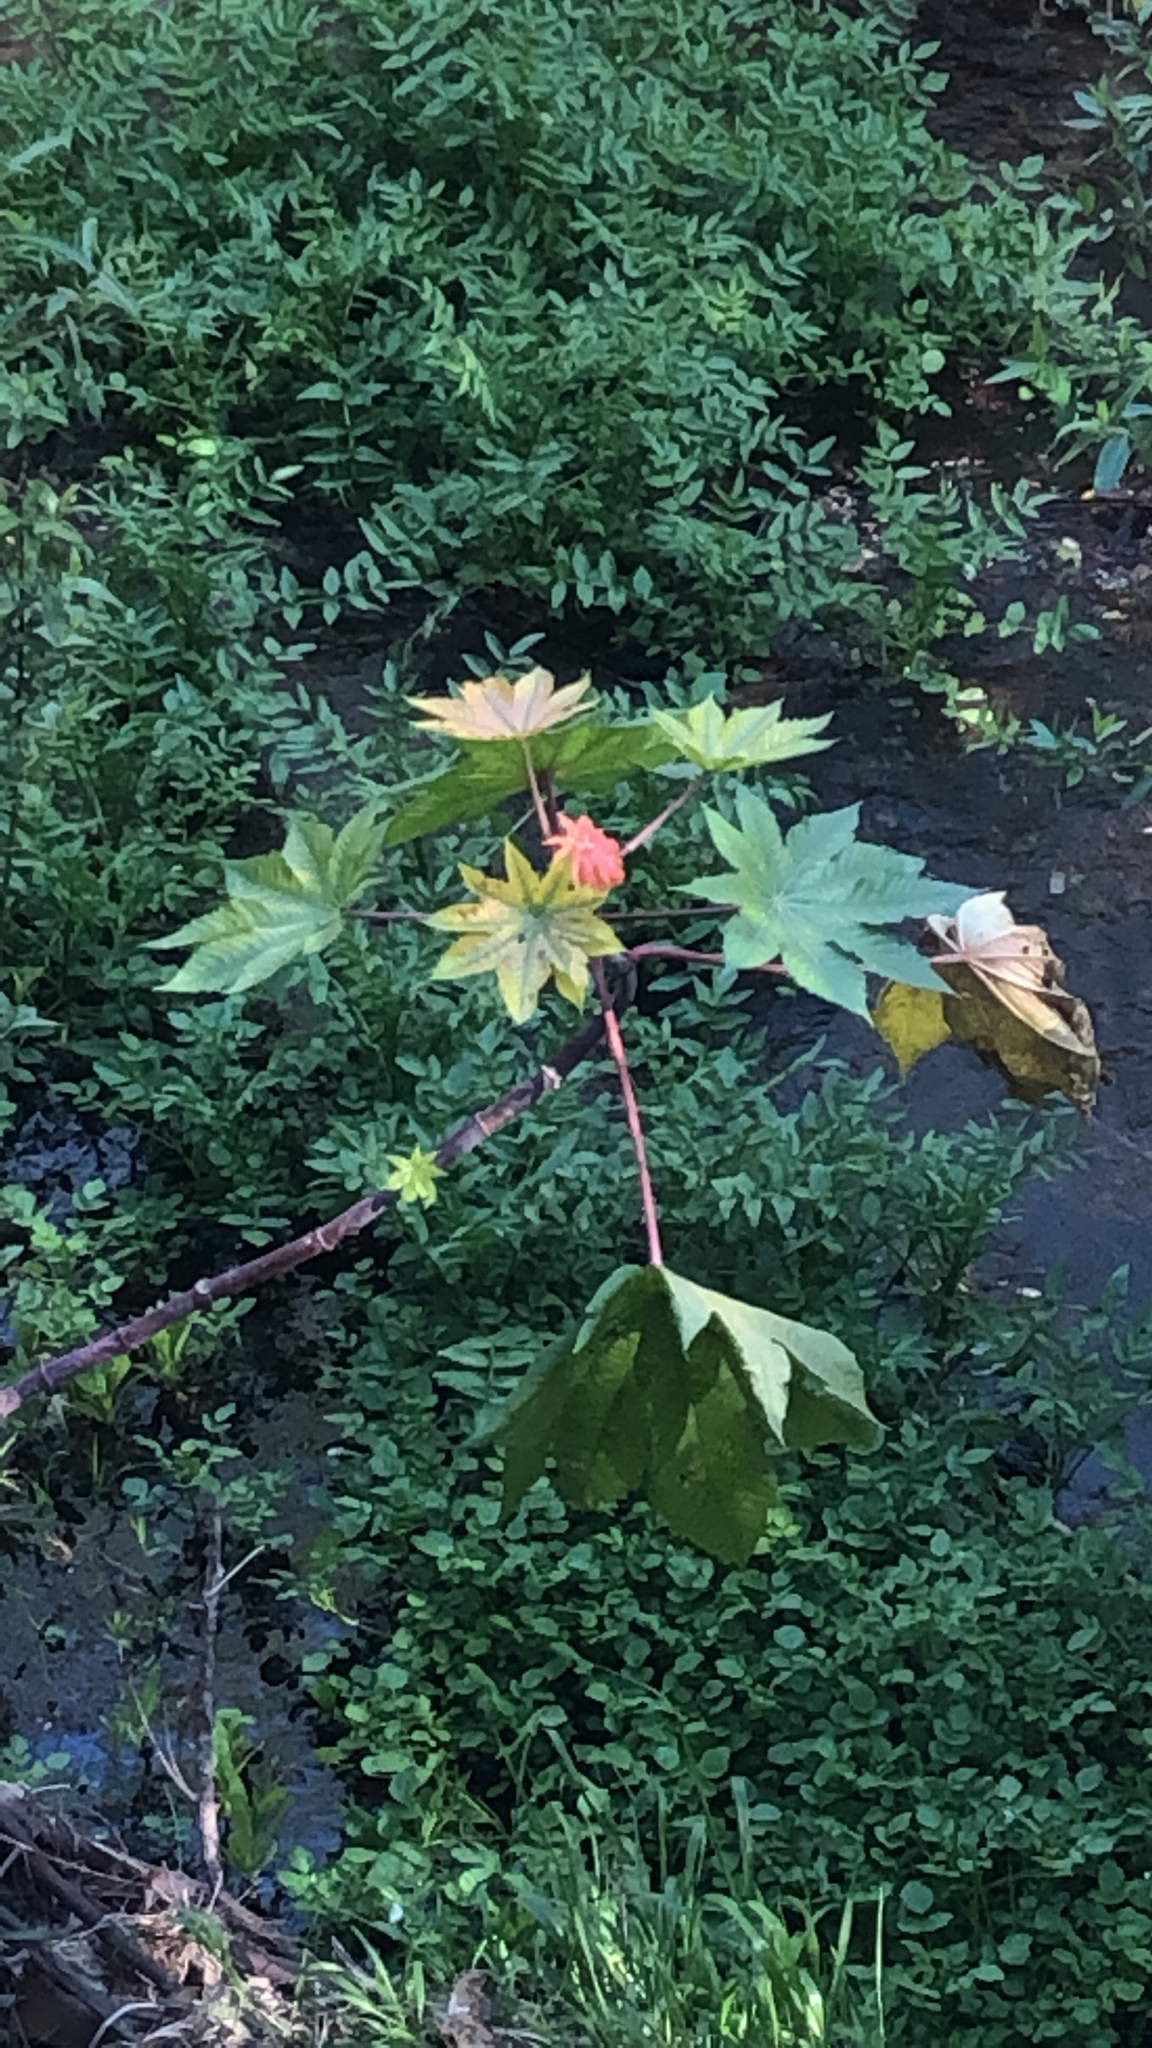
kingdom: Plantae
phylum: Tracheophyta
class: Magnoliopsida
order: Malpighiales
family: Euphorbiaceae
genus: Ricinus
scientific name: Ricinus communis
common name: Castor-oil-plant
